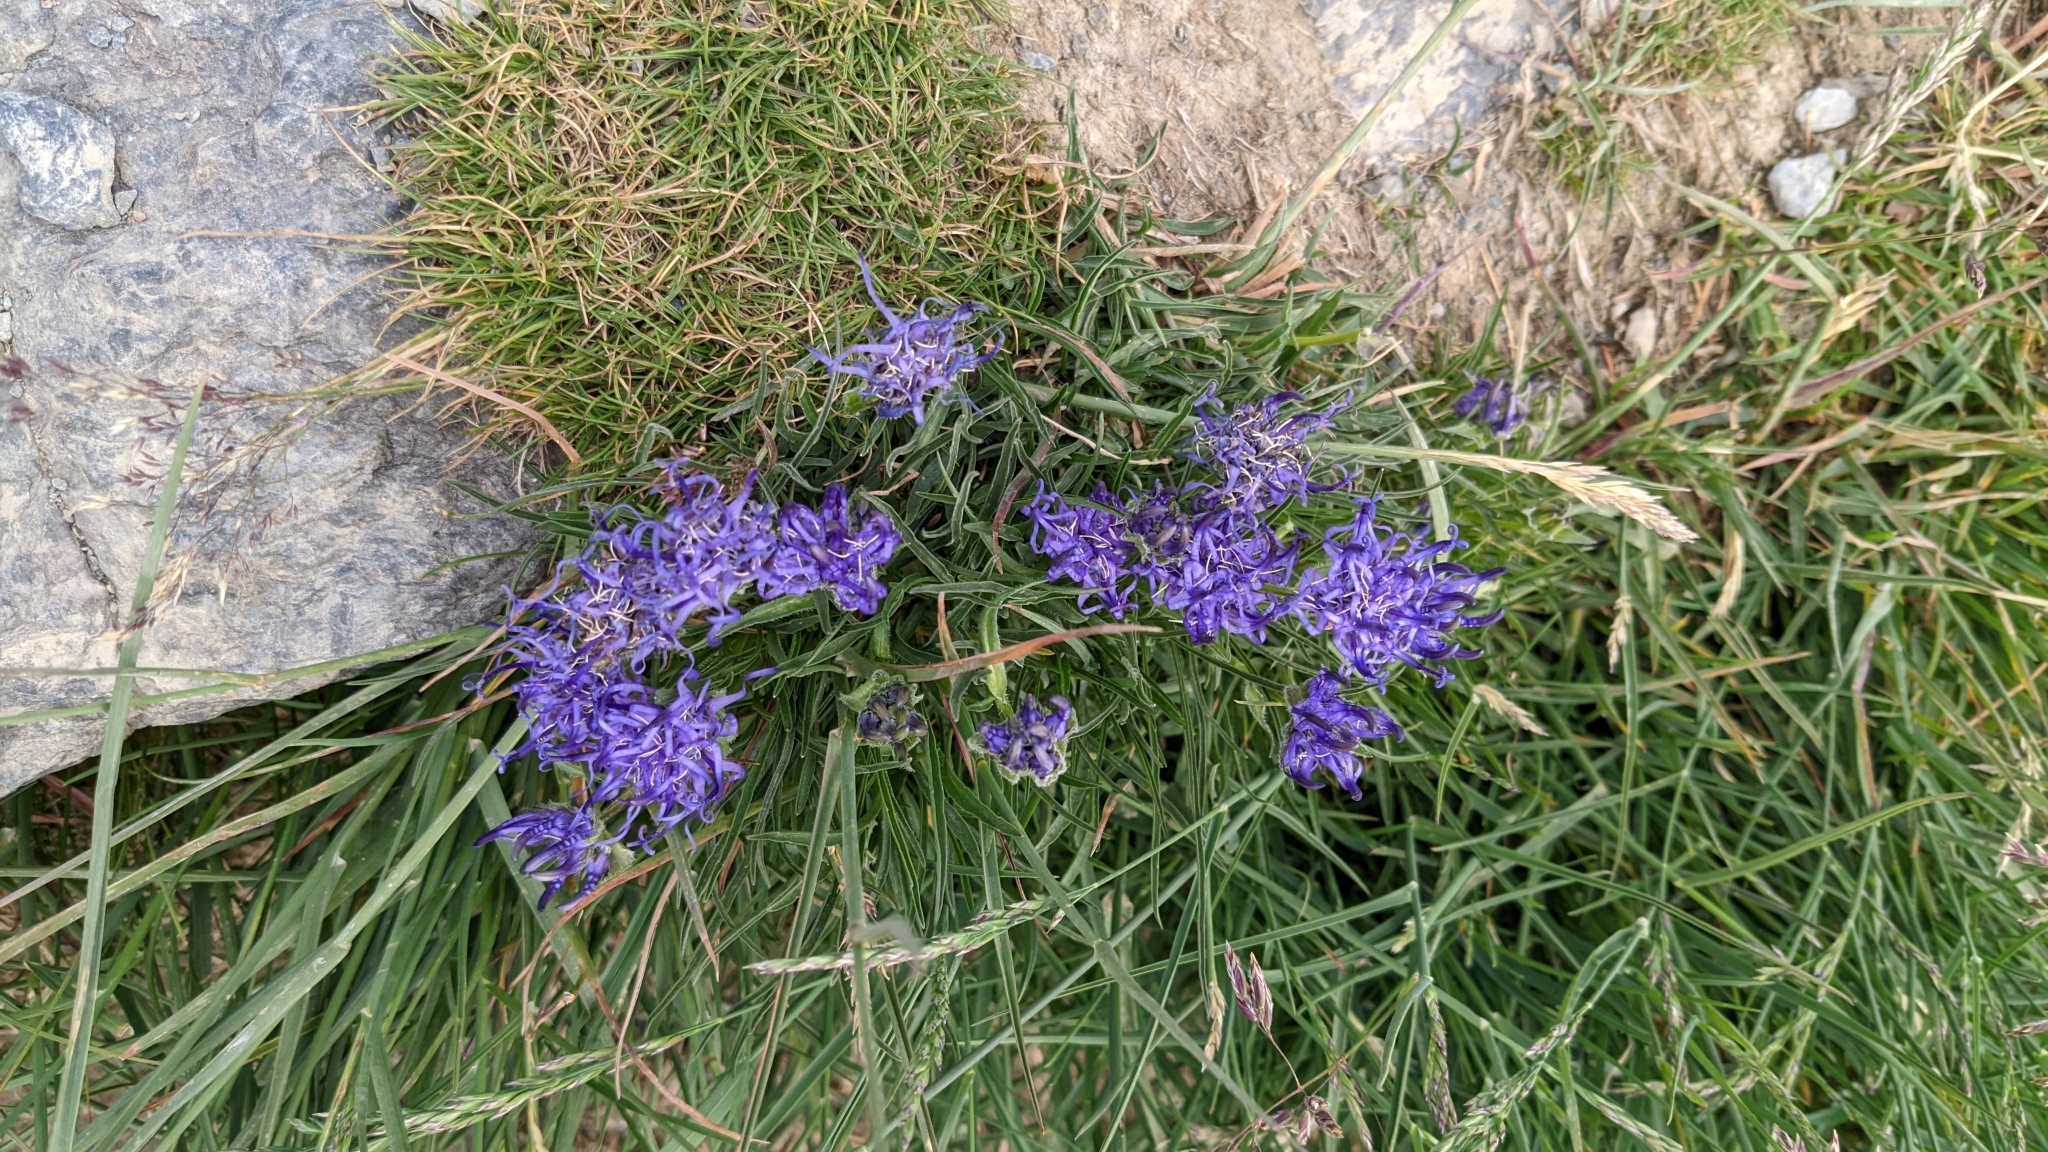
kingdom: Plantae
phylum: Tracheophyta
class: Magnoliopsida
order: Asterales
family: Campanulaceae
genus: Phyteuma
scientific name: Phyteuma hemisphaericum
